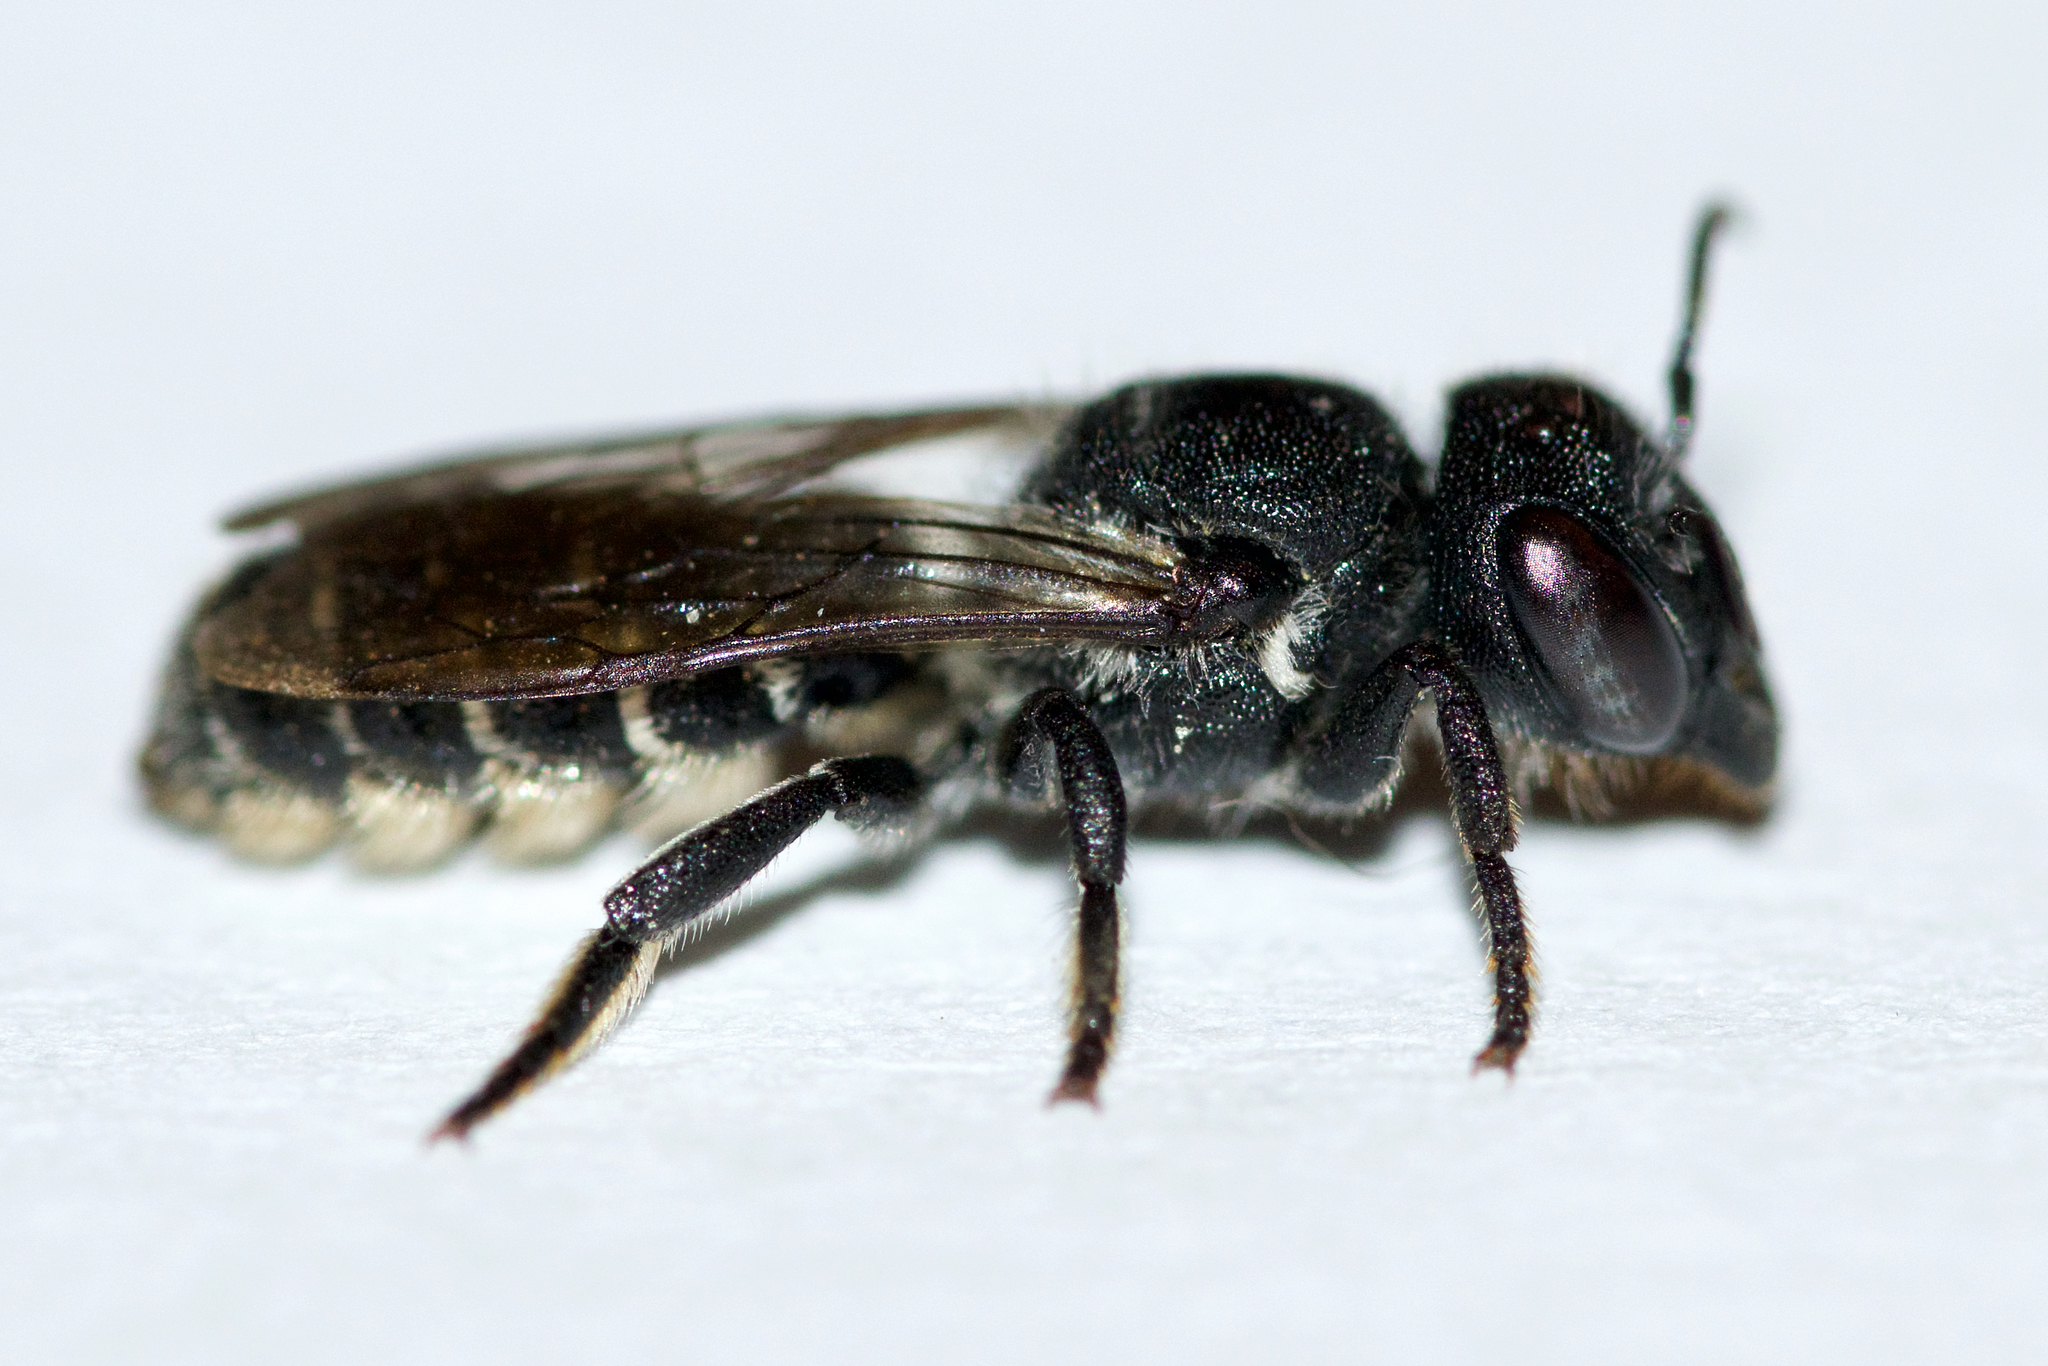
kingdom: Animalia
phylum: Arthropoda
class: Insecta
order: Hymenoptera
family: Megachilidae
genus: Megachile
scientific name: Megachile campanulae
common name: Bellflower resin bee
